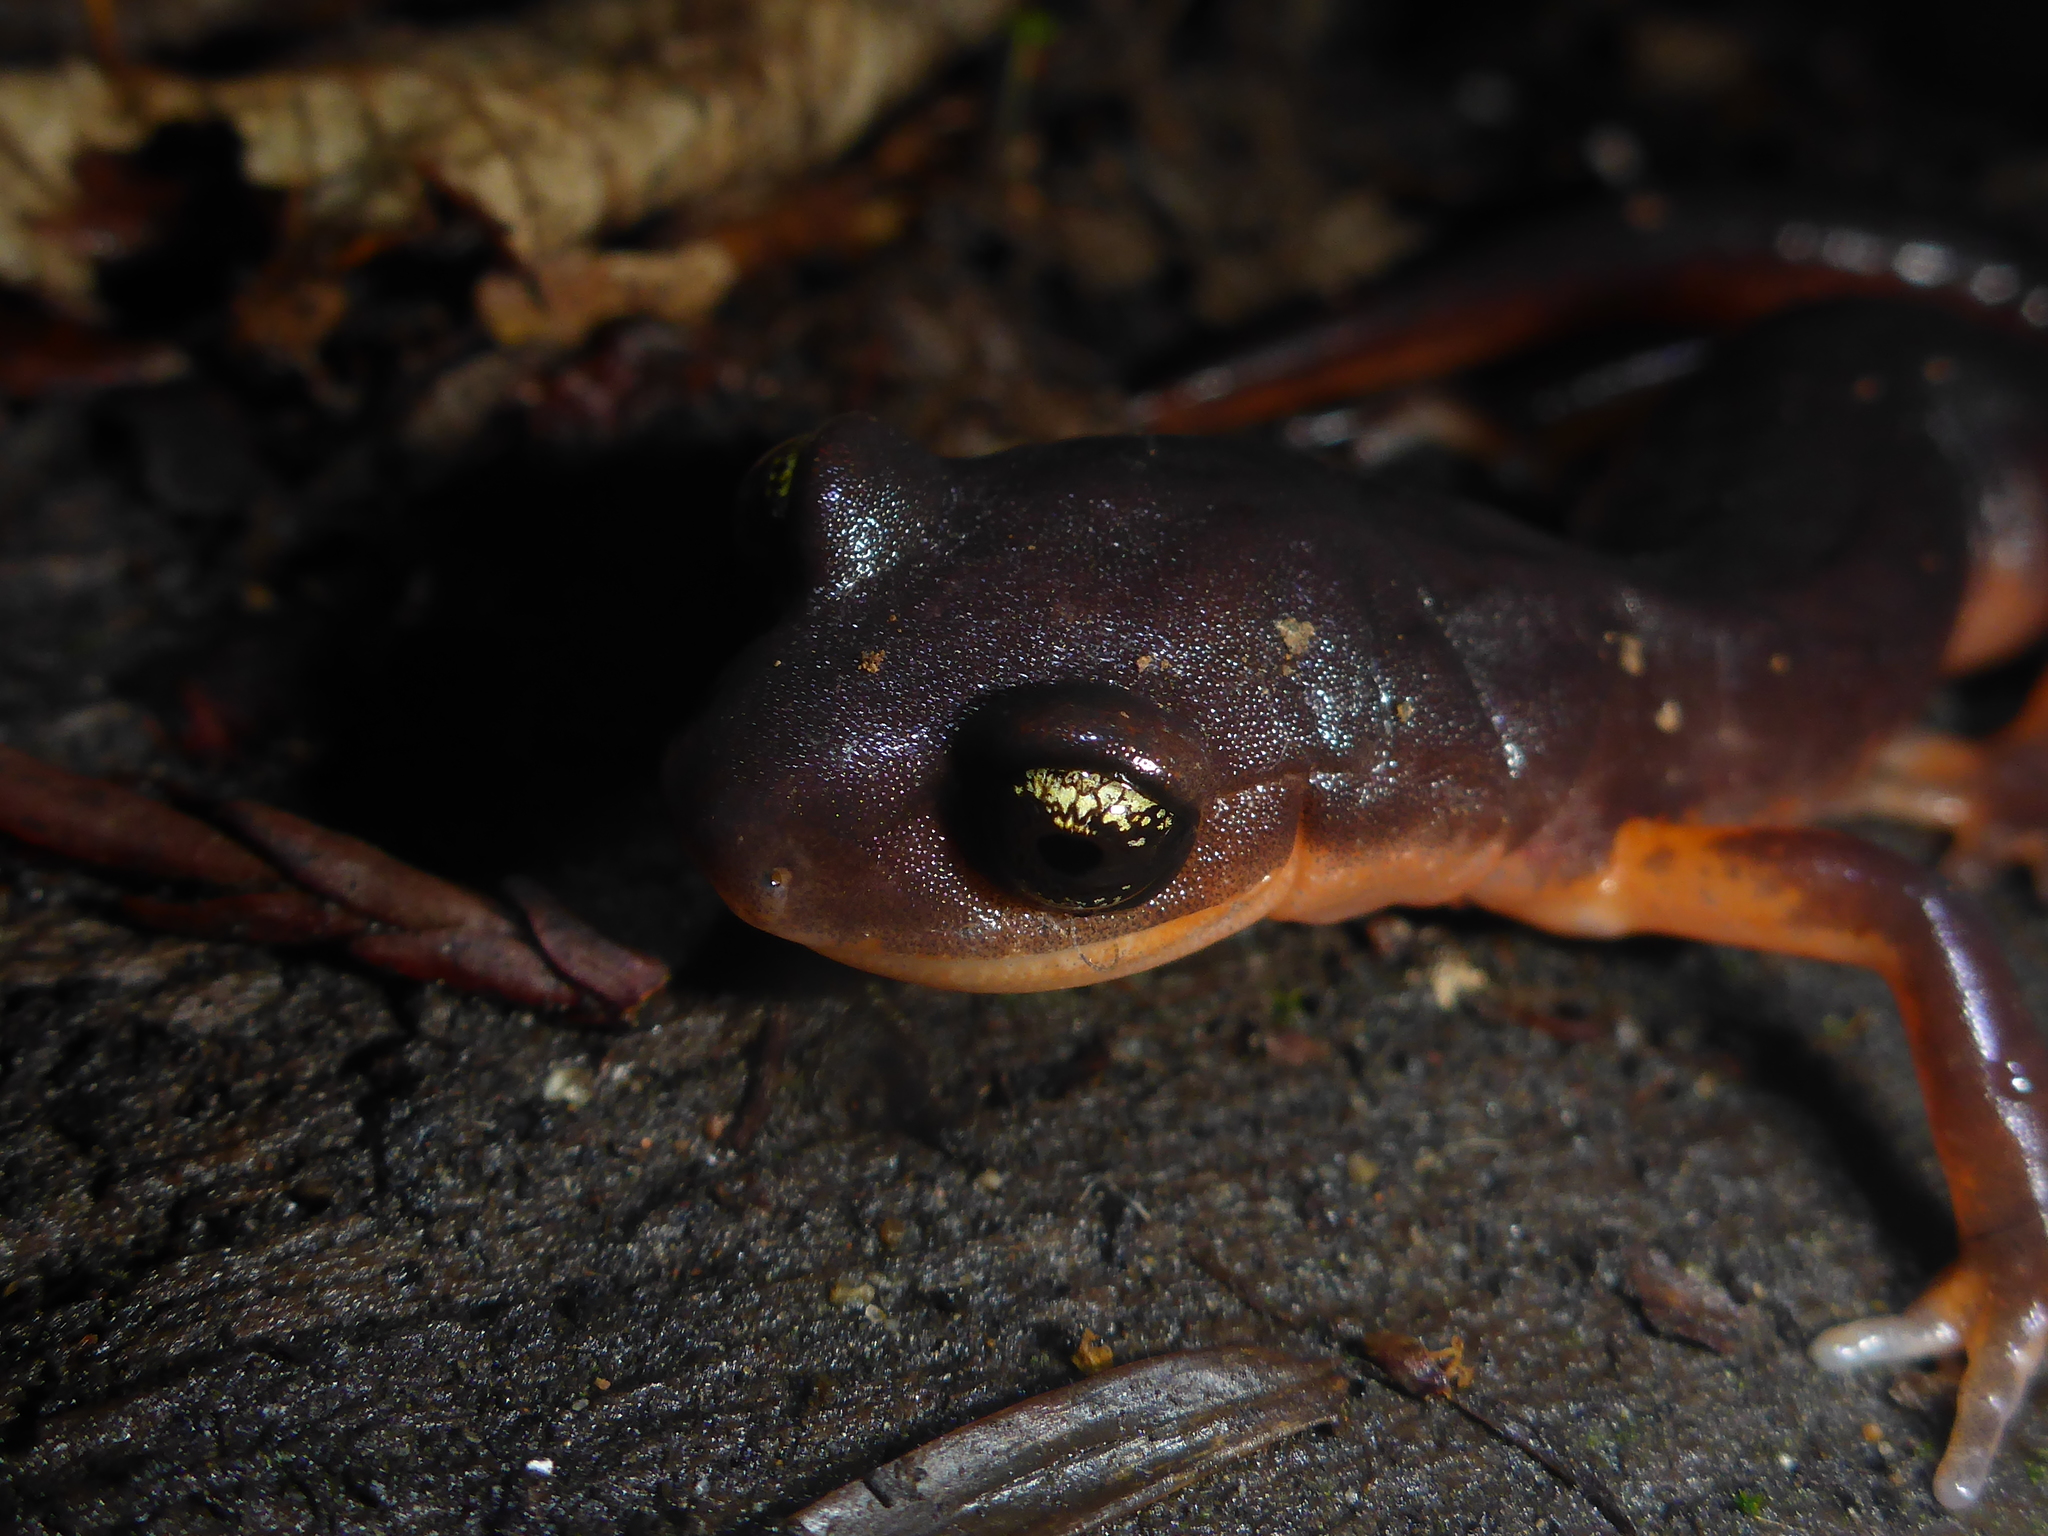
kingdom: Animalia
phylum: Chordata
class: Amphibia
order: Caudata
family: Plethodontidae
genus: Ensatina
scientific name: Ensatina eschscholtzii
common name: Ensatina
